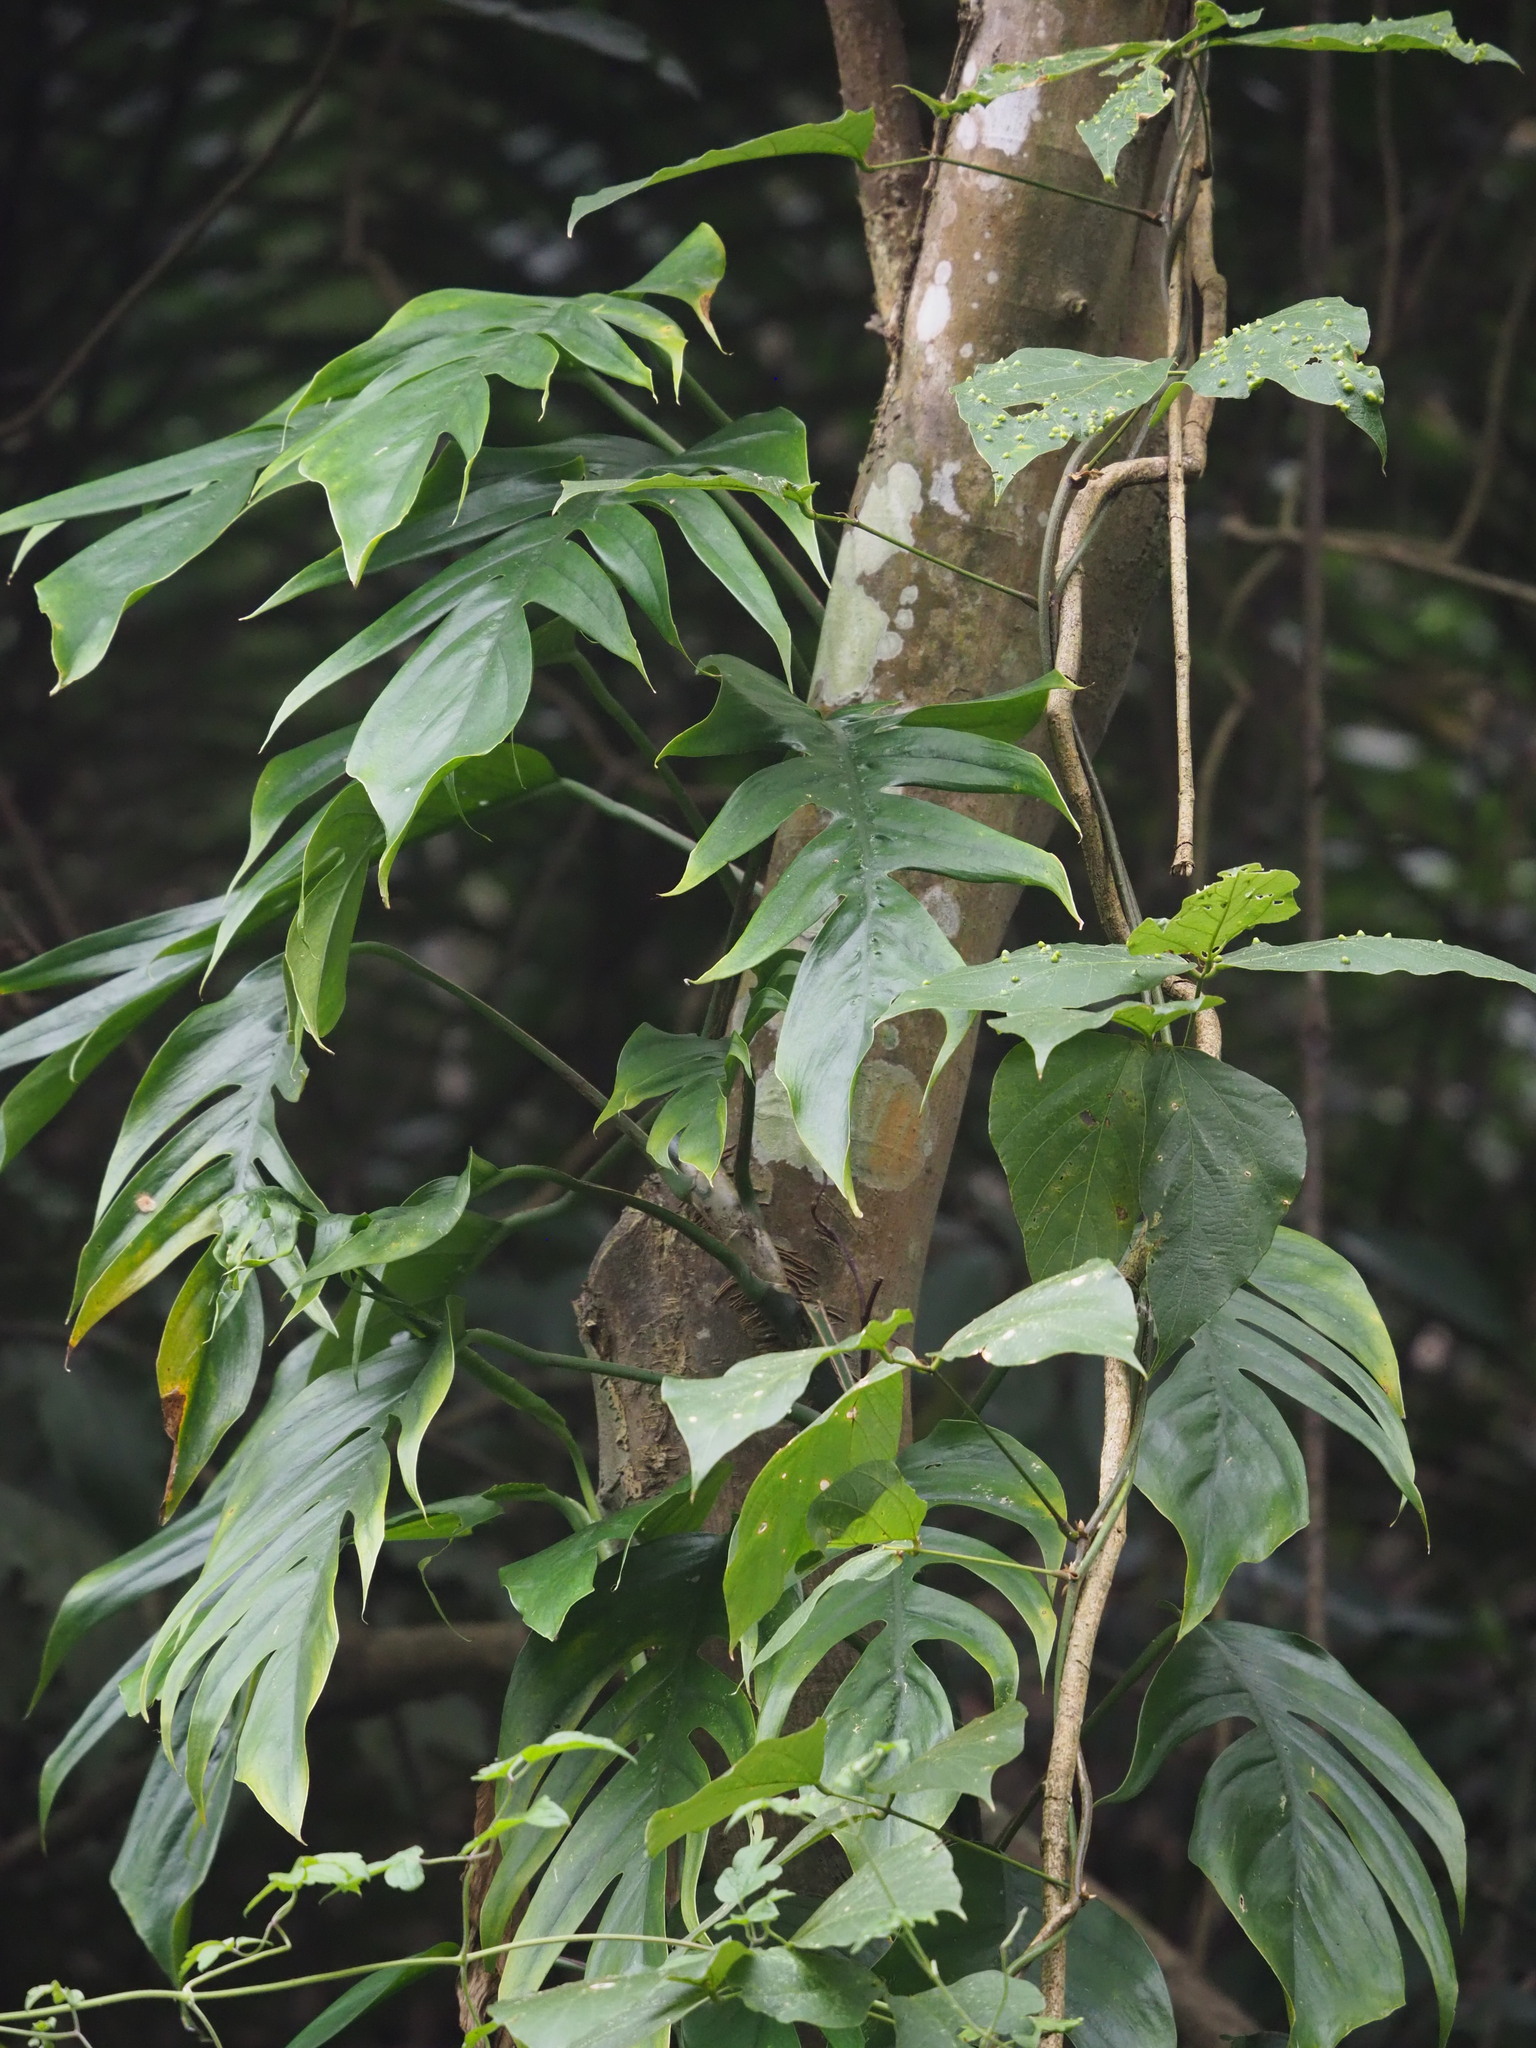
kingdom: Plantae
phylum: Tracheophyta
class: Liliopsida
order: Alismatales
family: Araceae
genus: Epipremnum
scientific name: Epipremnum pinnatum
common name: Centipede tongavine
